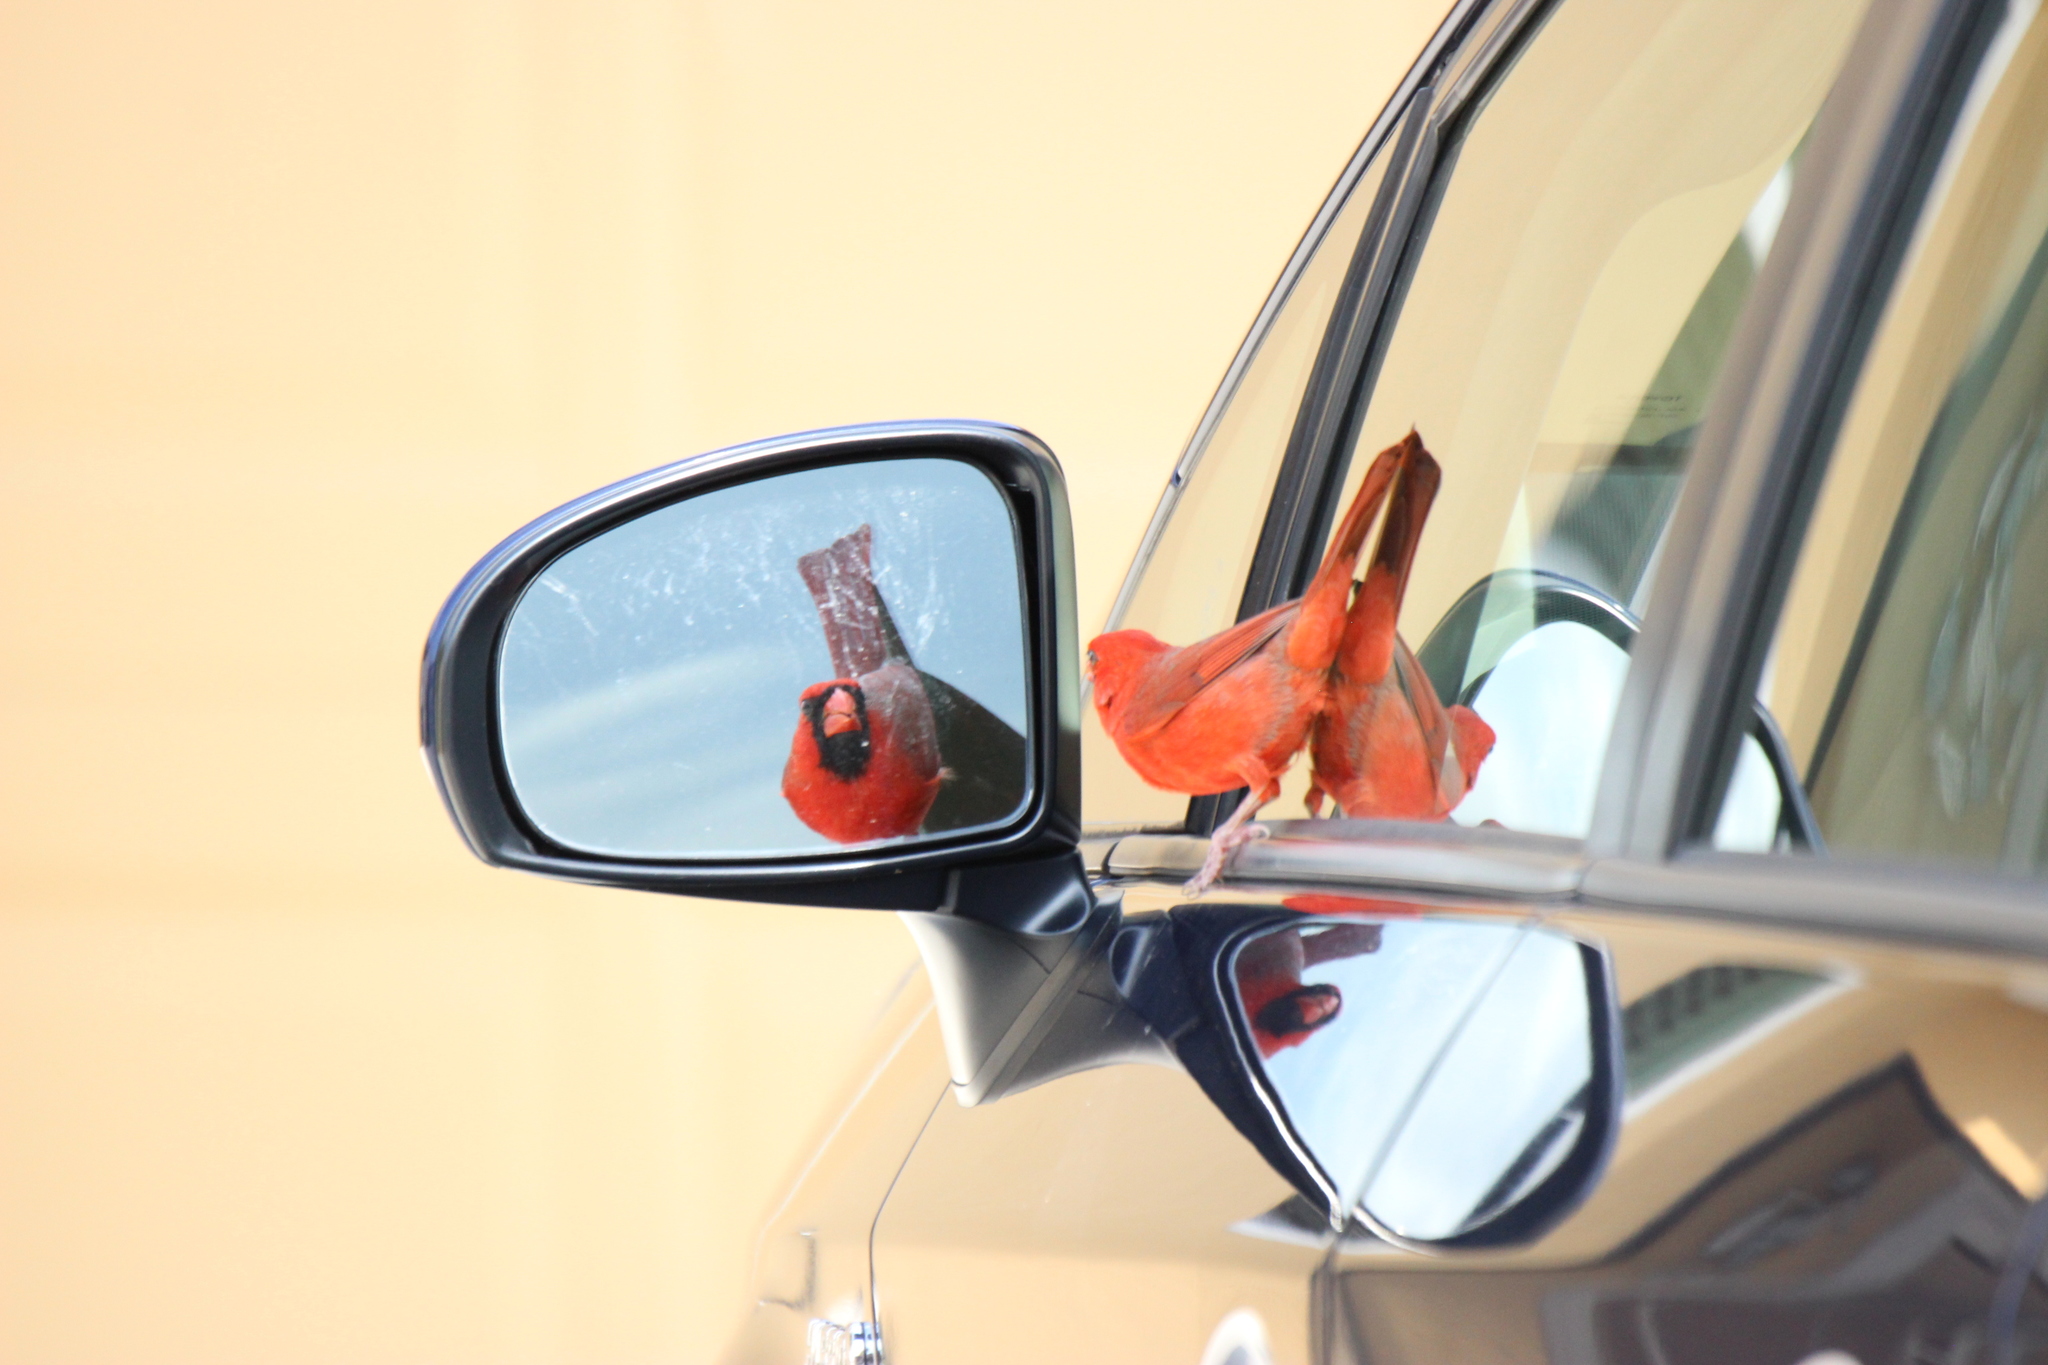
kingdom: Animalia
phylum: Chordata
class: Aves
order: Passeriformes
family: Cardinalidae
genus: Cardinalis
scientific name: Cardinalis cardinalis
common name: Northern cardinal
